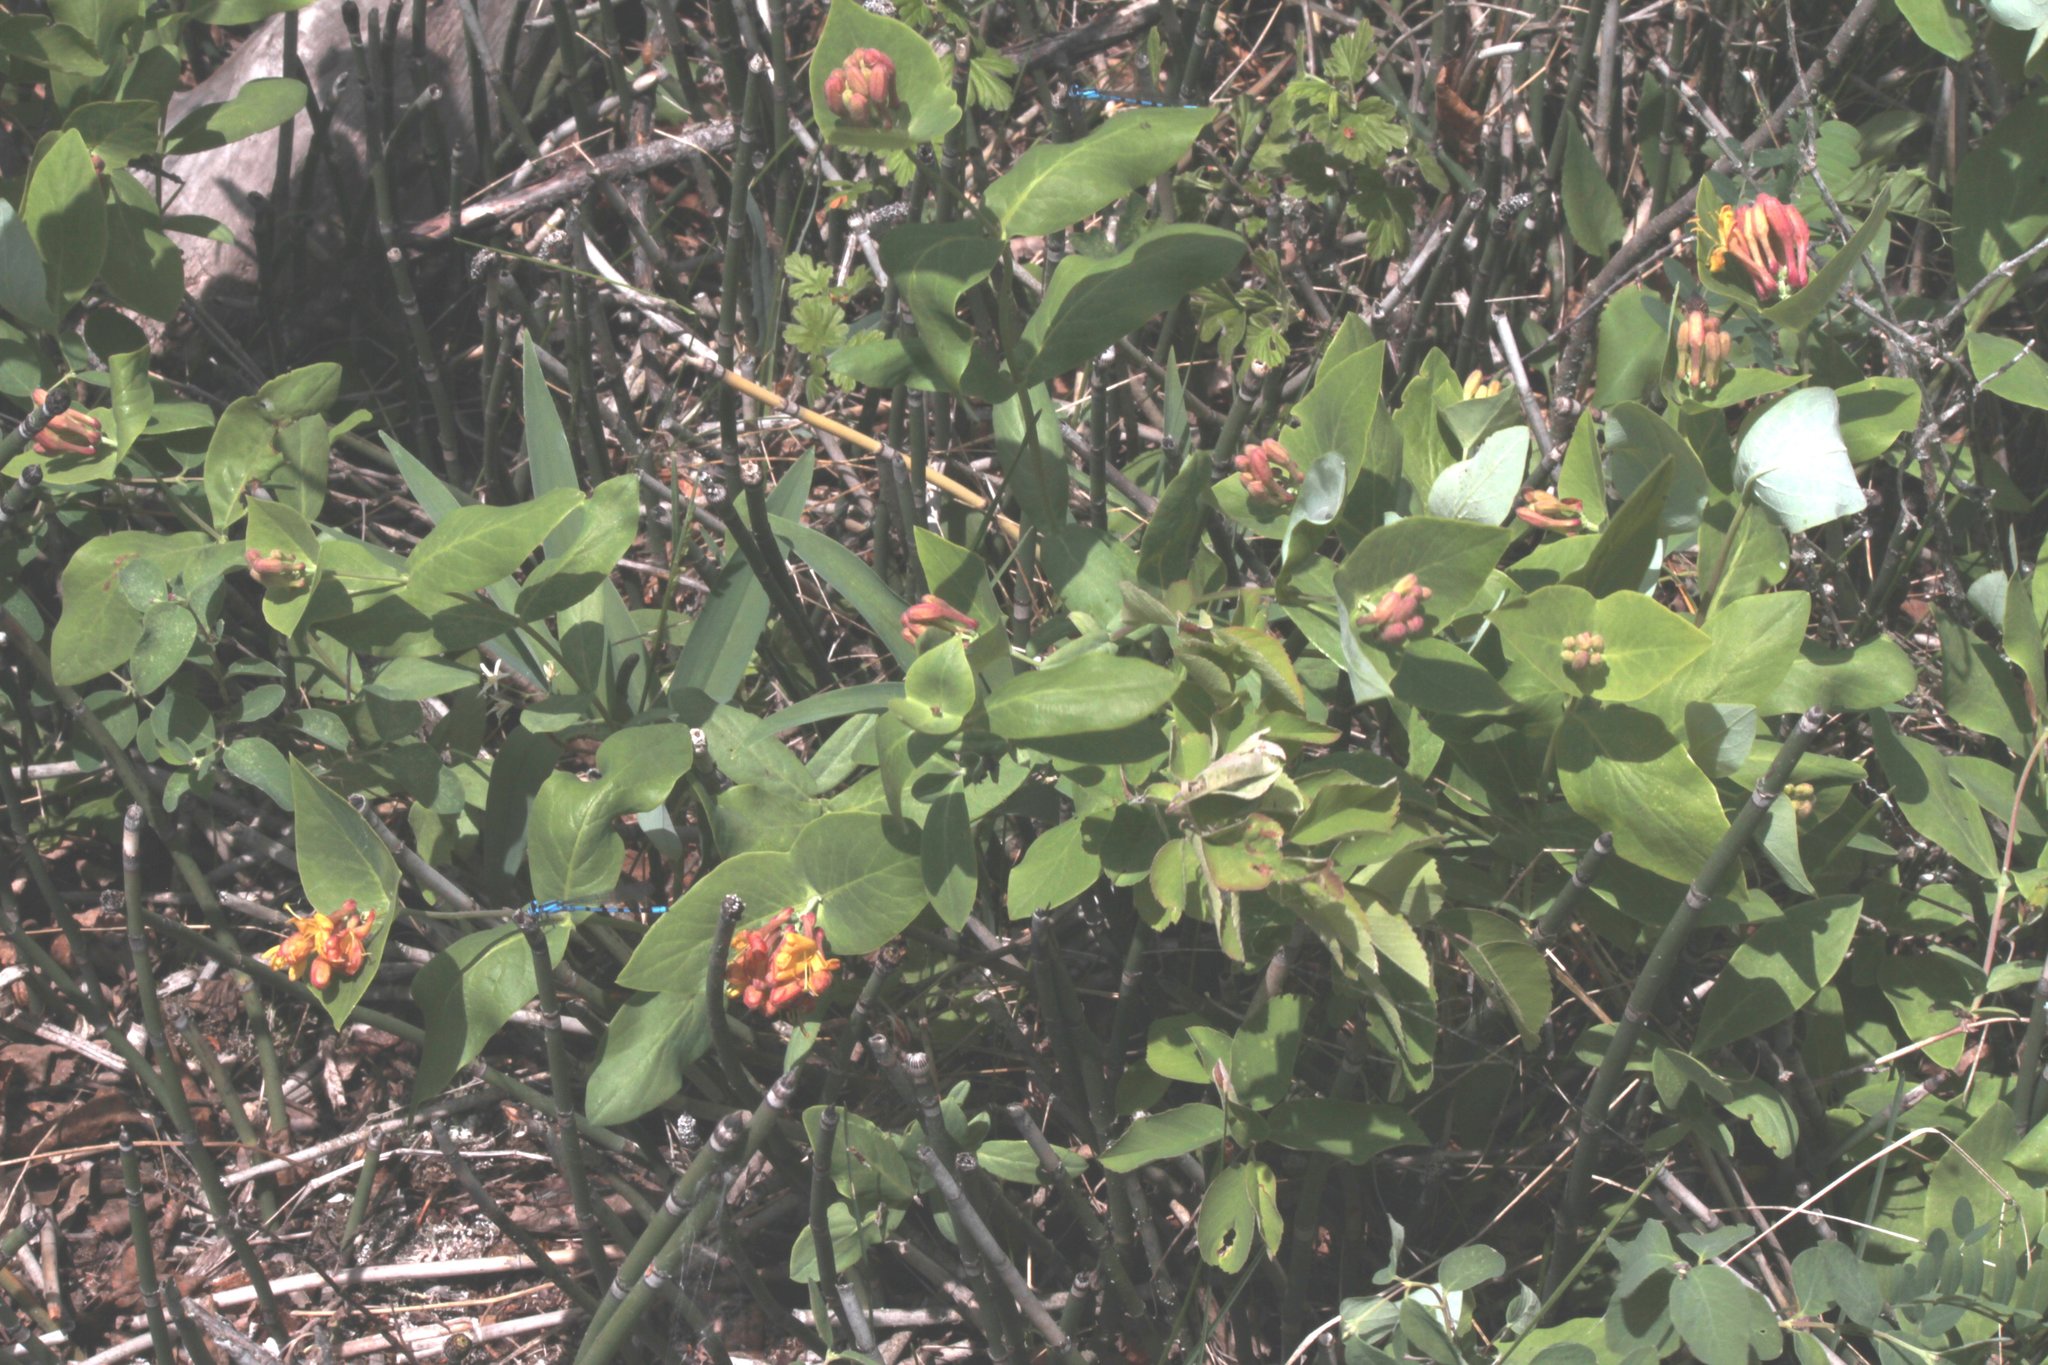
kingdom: Plantae
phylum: Tracheophyta
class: Magnoliopsida
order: Dipsacales
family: Caprifoliaceae
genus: Lonicera
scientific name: Lonicera dioica
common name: Limber honeysuckle
